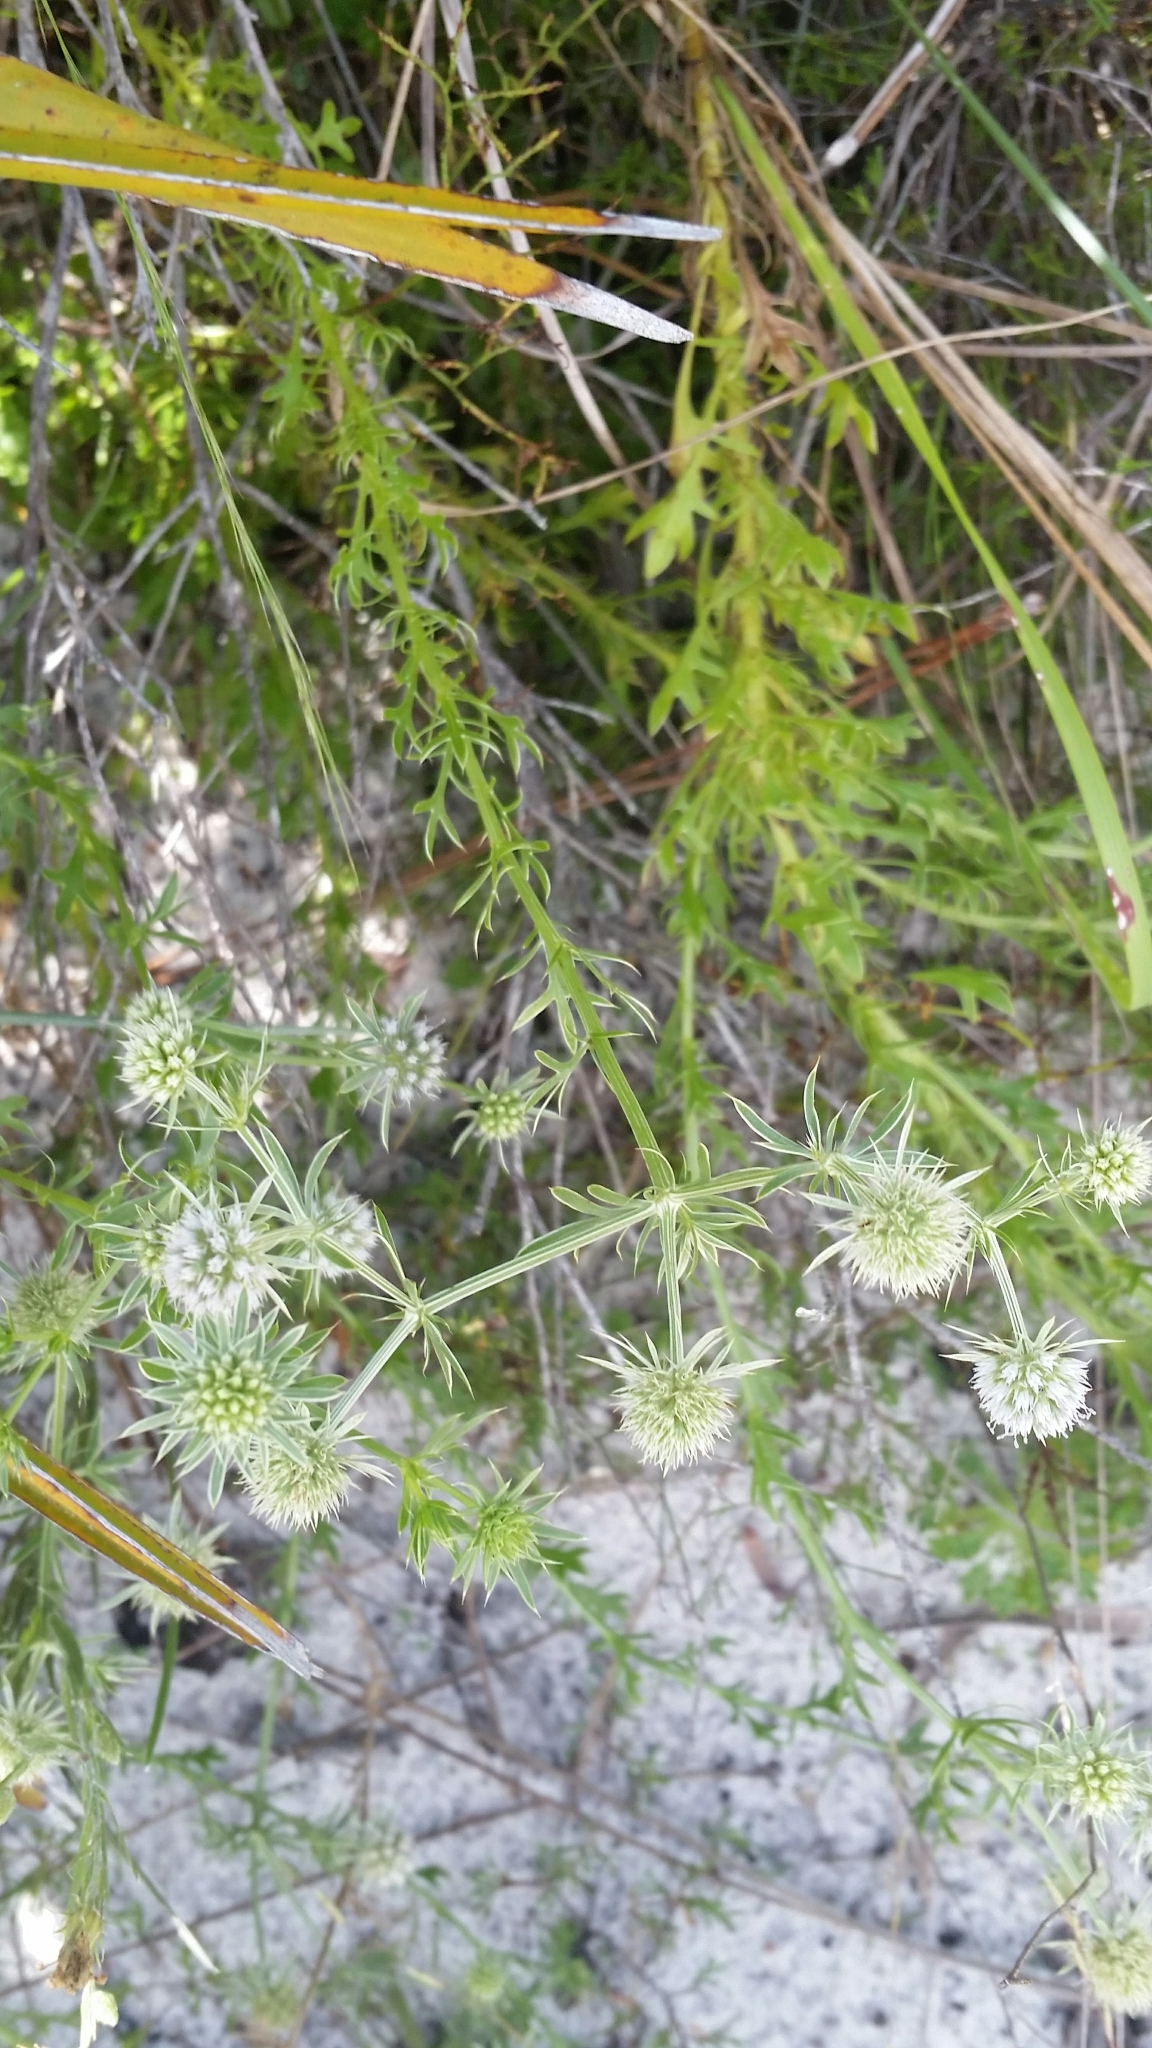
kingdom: Plantae
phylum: Tracheophyta
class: Magnoliopsida
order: Apiales
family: Apiaceae
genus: Eryngium
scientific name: Eryngium aromaticum
